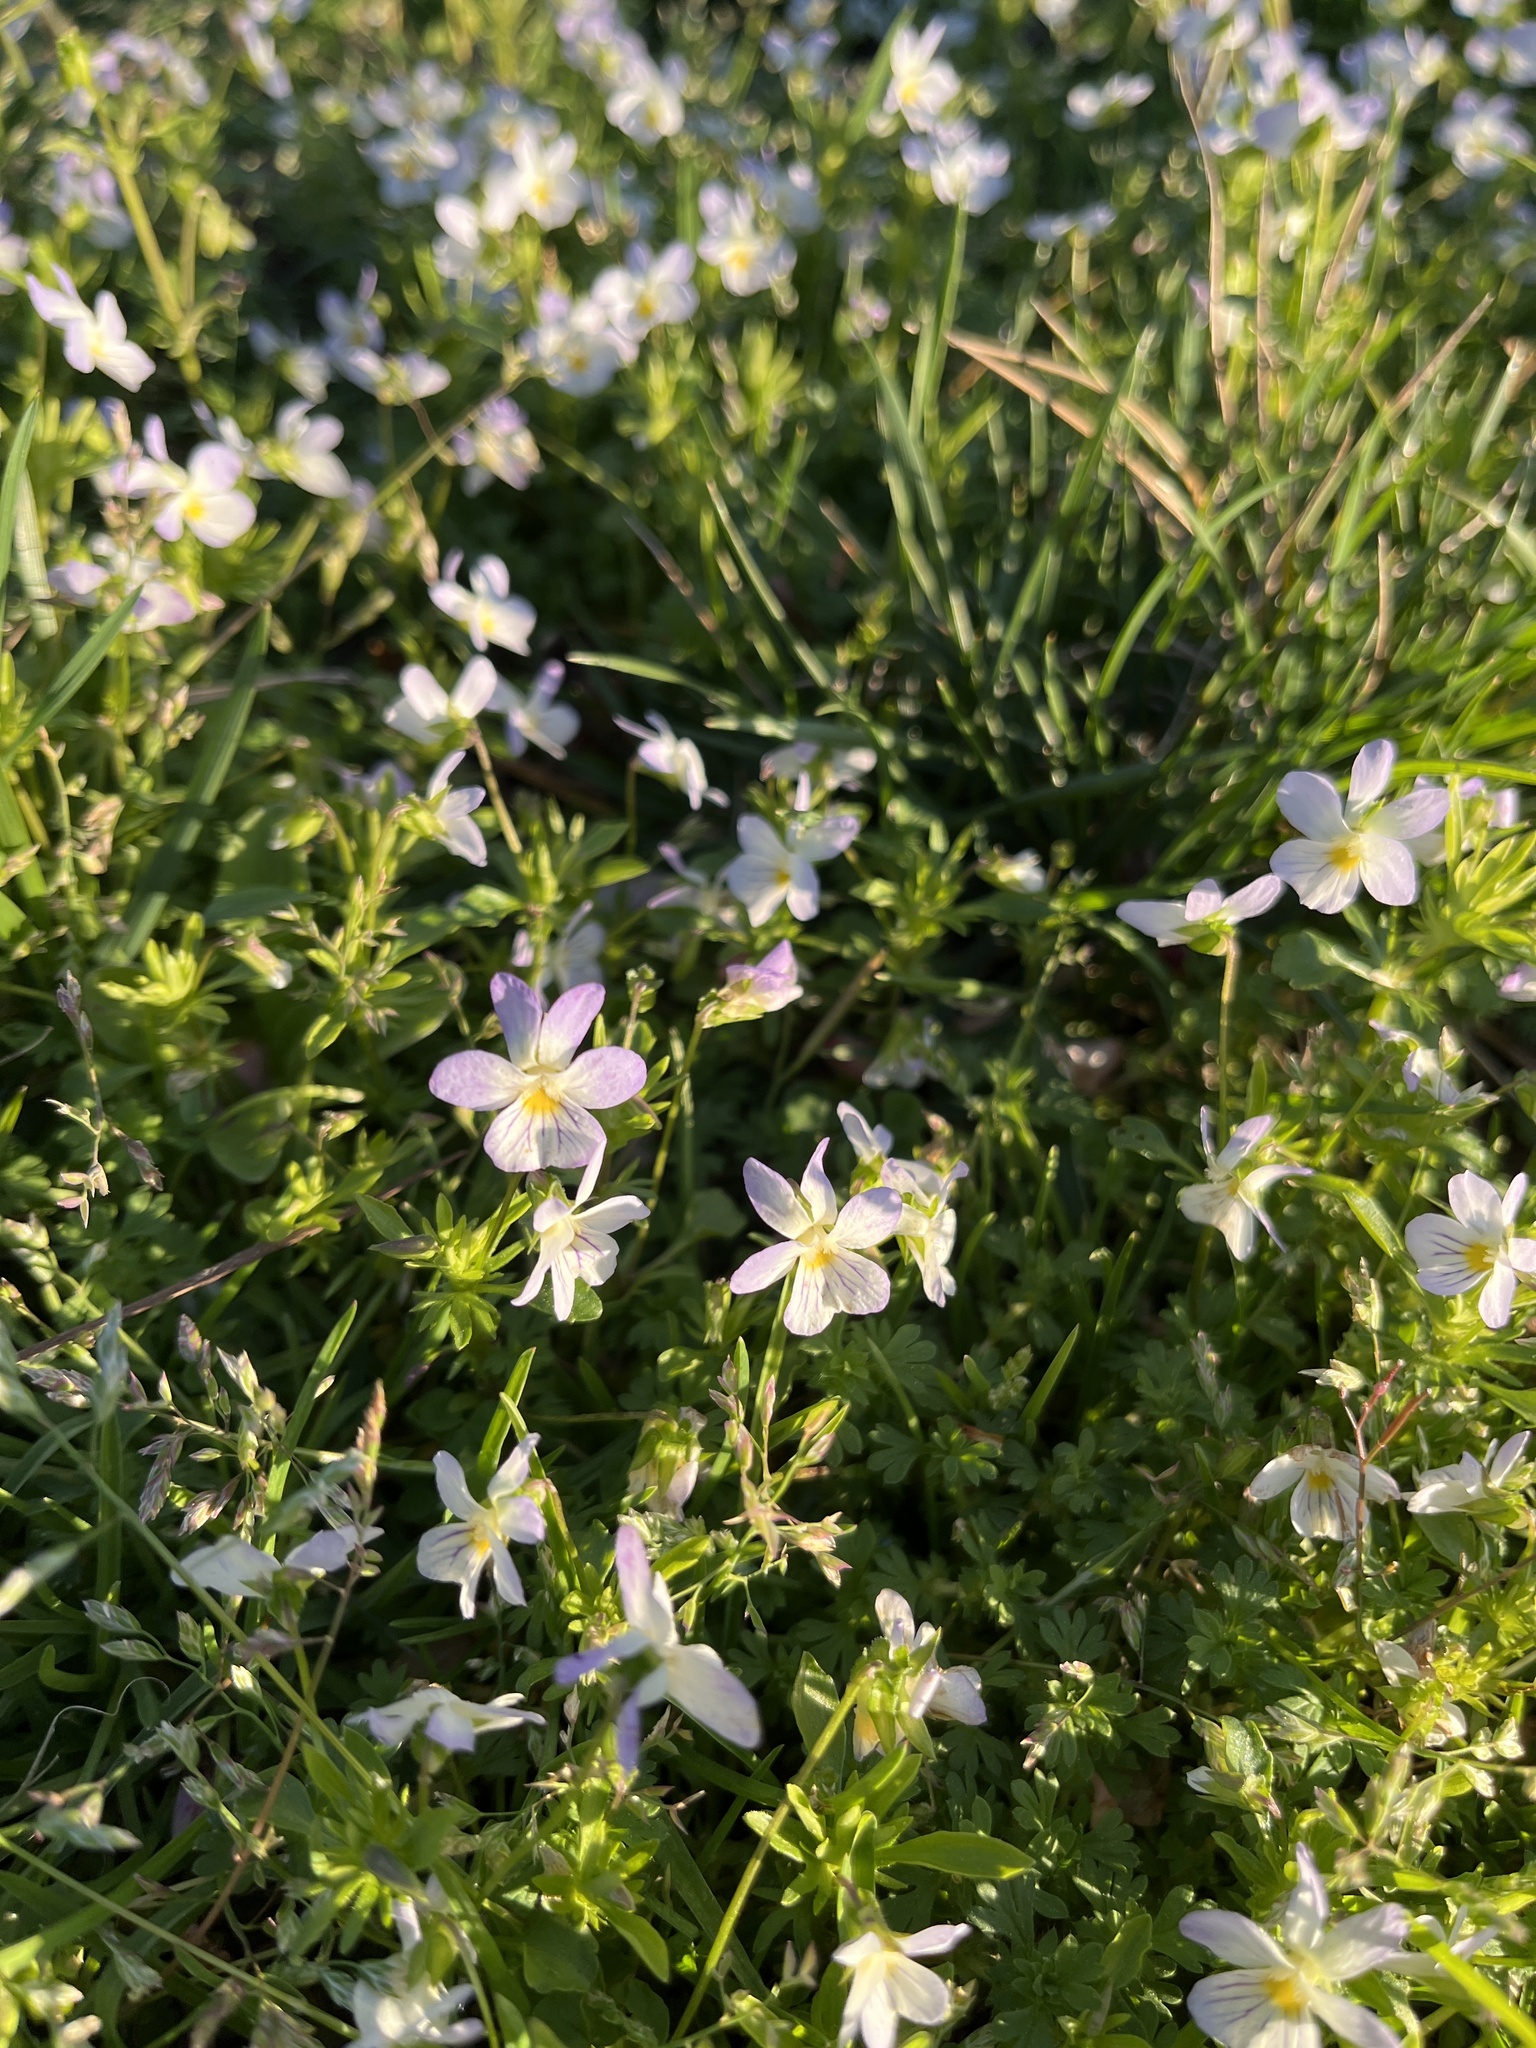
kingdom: Plantae
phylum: Tracheophyta
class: Magnoliopsida
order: Malpighiales
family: Violaceae
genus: Viola
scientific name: Viola rafinesquei
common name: American field pansy
